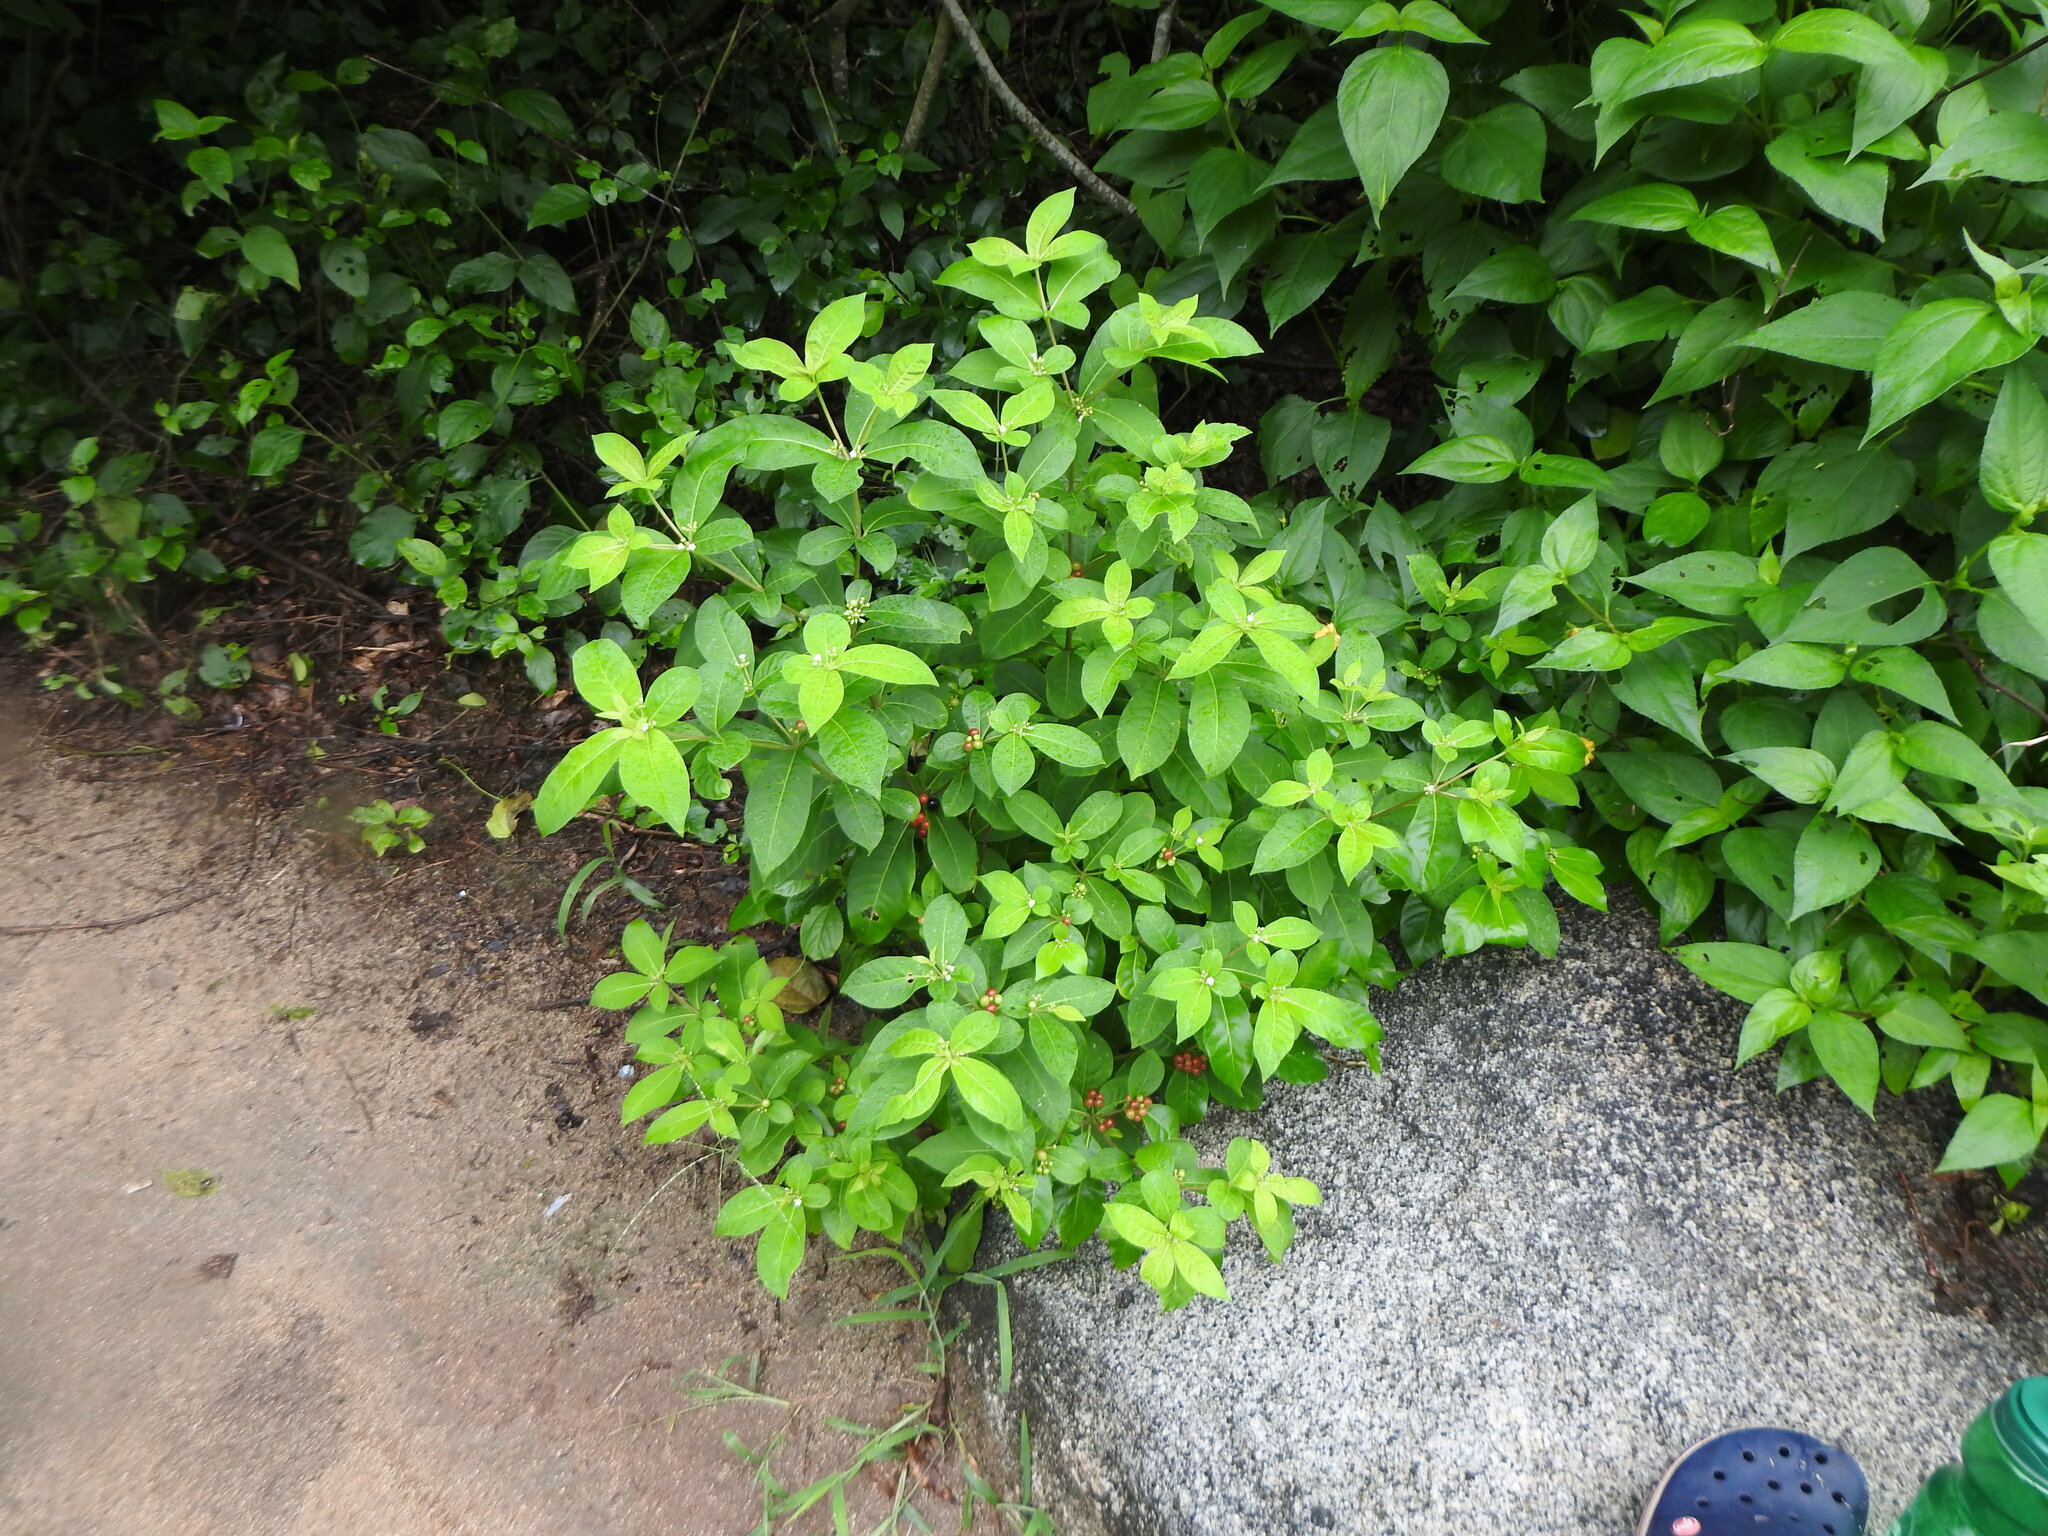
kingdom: Plantae
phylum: Tracheophyta
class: Magnoliopsida
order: Gentianales
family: Apocynaceae
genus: Rauvolfia
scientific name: Rauvolfia tetraphylla
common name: Four-leaf devil-pepper
